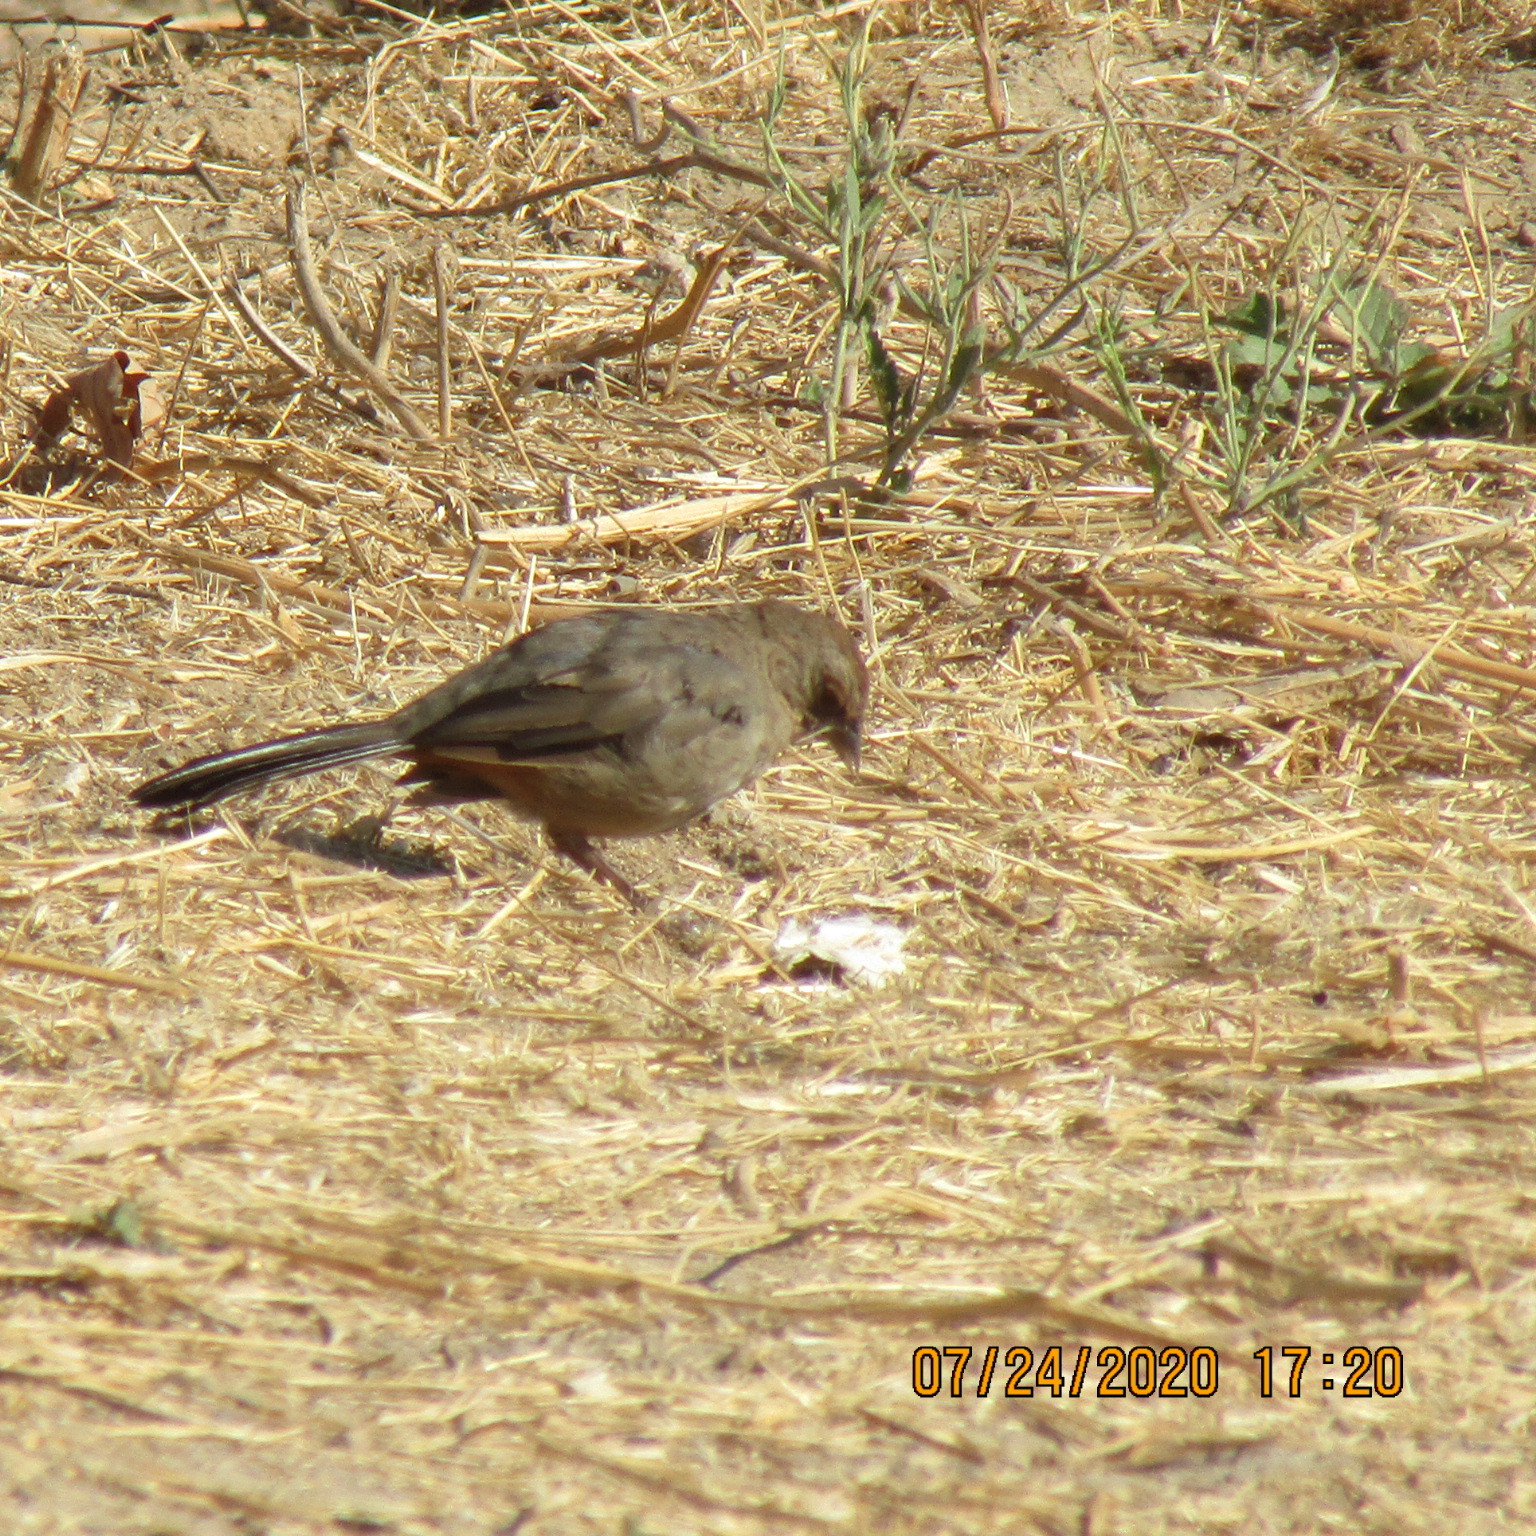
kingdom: Animalia
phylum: Chordata
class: Aves
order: Passeriformes
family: Passerellidae
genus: Melozone
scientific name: Melozone crissalis
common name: California towhee
